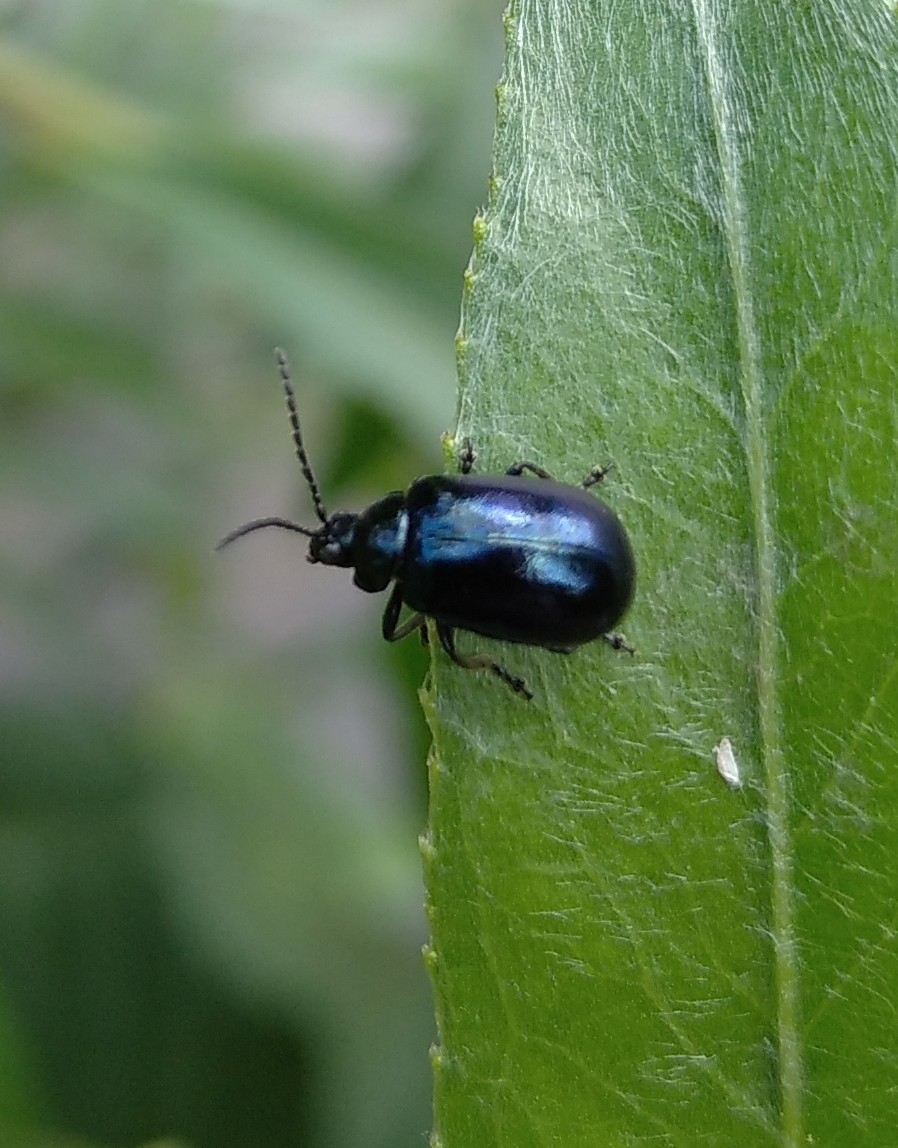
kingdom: Animalia
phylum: Arthropoda
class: Insecta
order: Coleoptera
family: Chrysomelidae
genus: Agelastica
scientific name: Agelastica alni
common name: Alder leaf beetle
